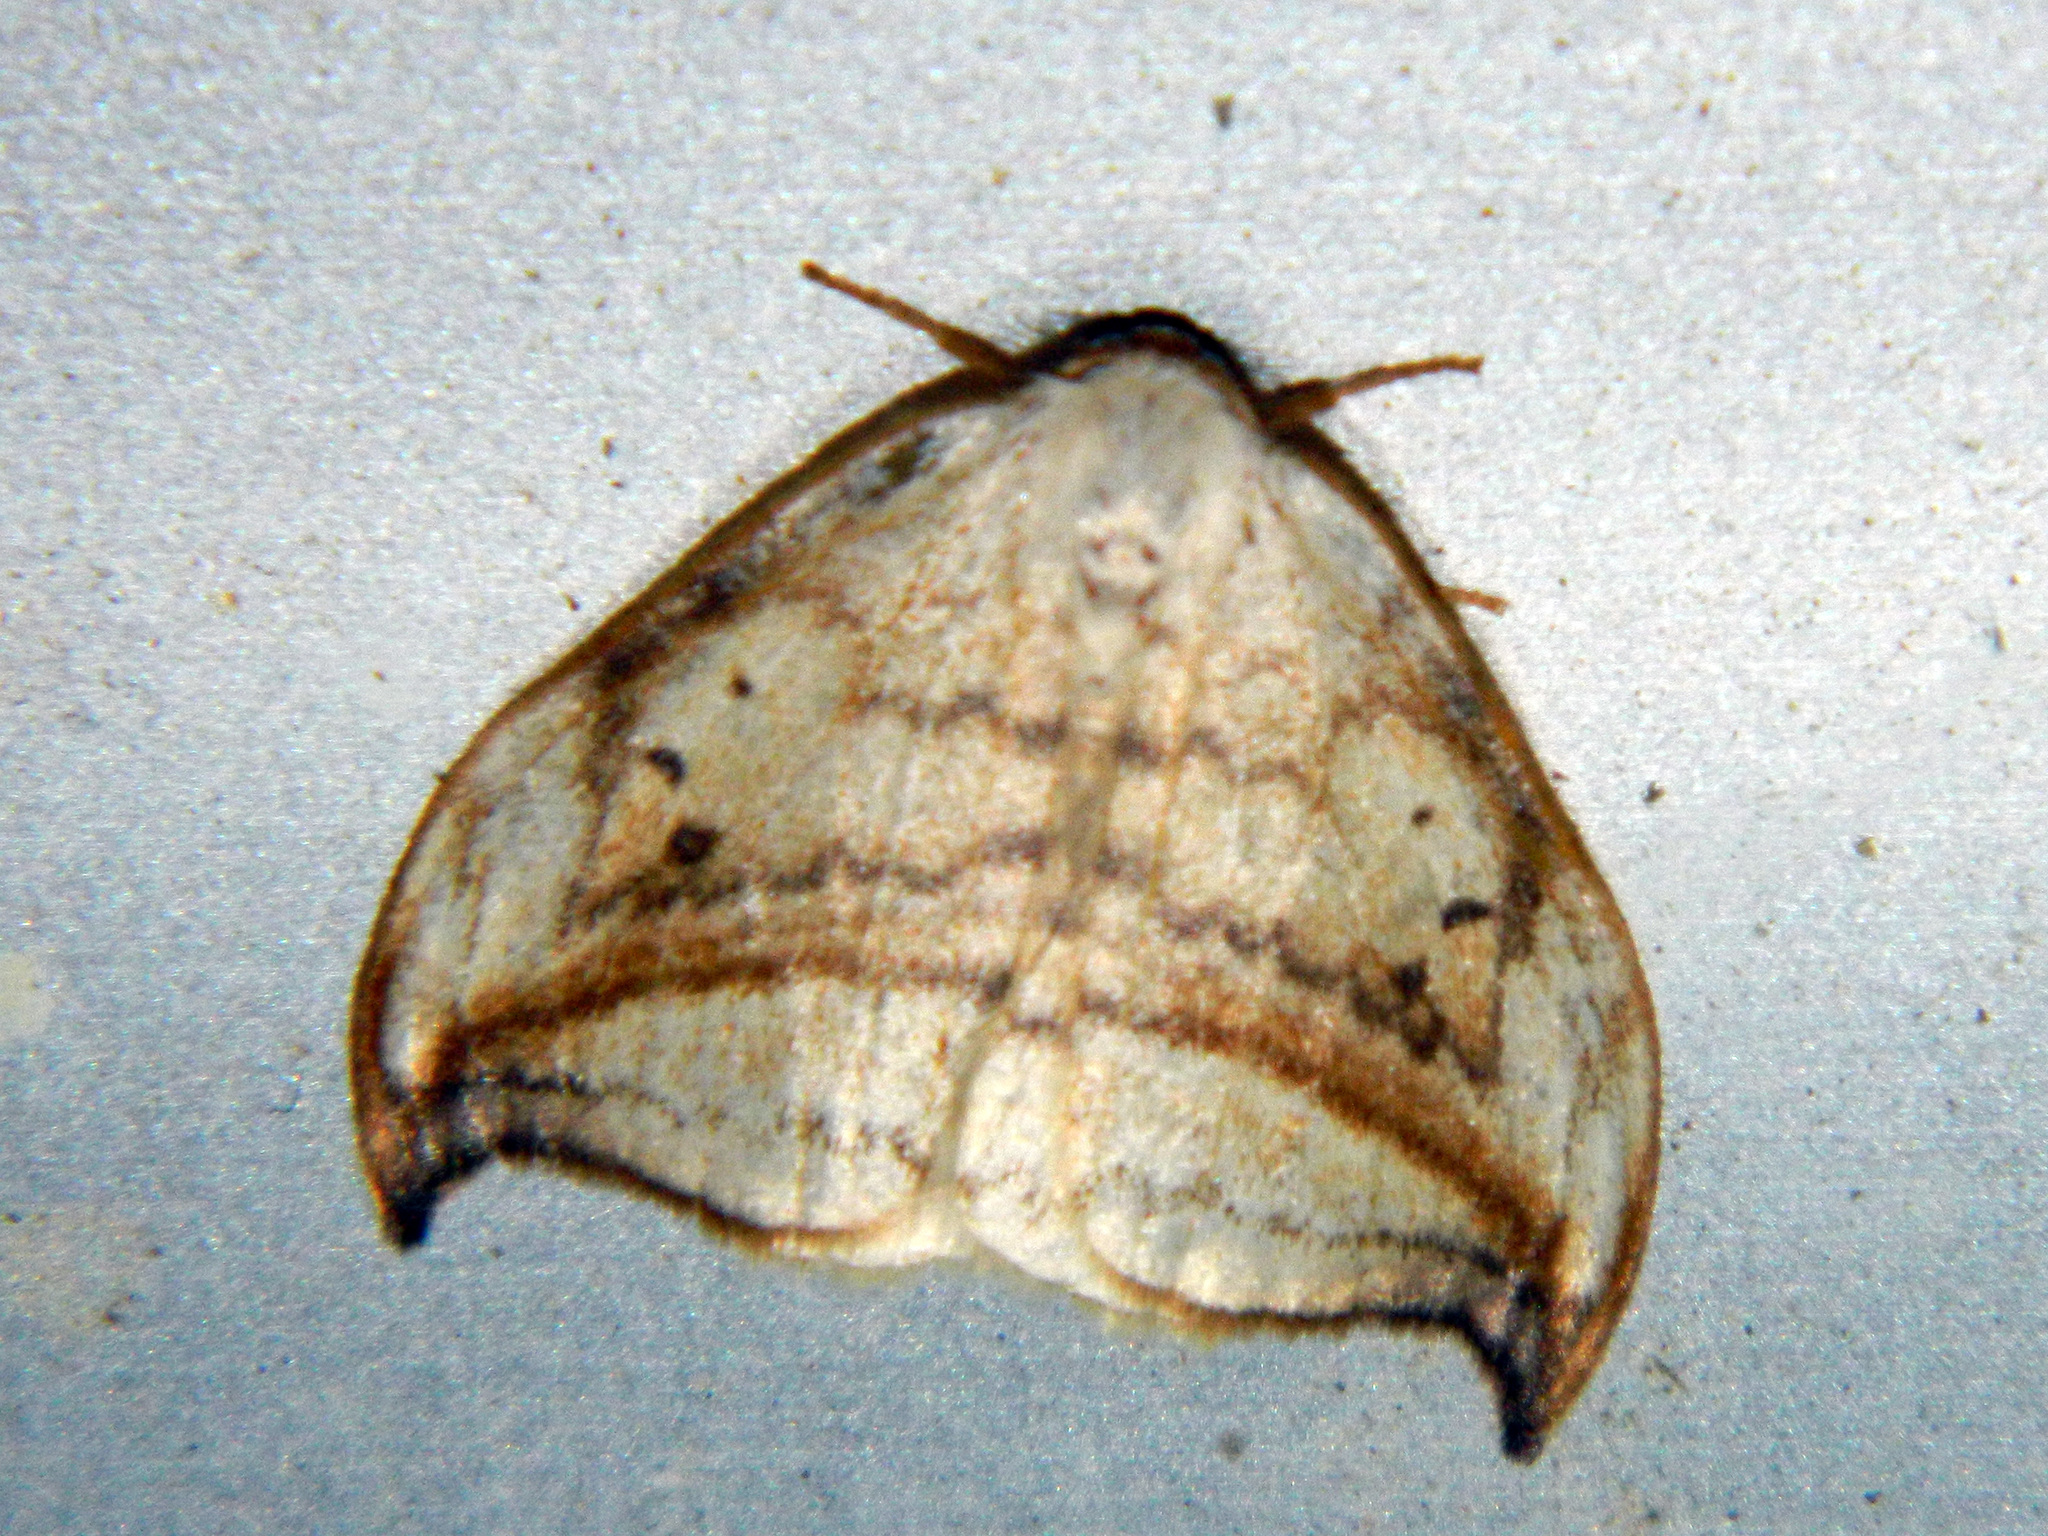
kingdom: Animalia
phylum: Arthropoda
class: Insecta
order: Lepidoptera
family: Drepanidae
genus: Drepana
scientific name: Drepana arcuata
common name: Arched hooktip moth
